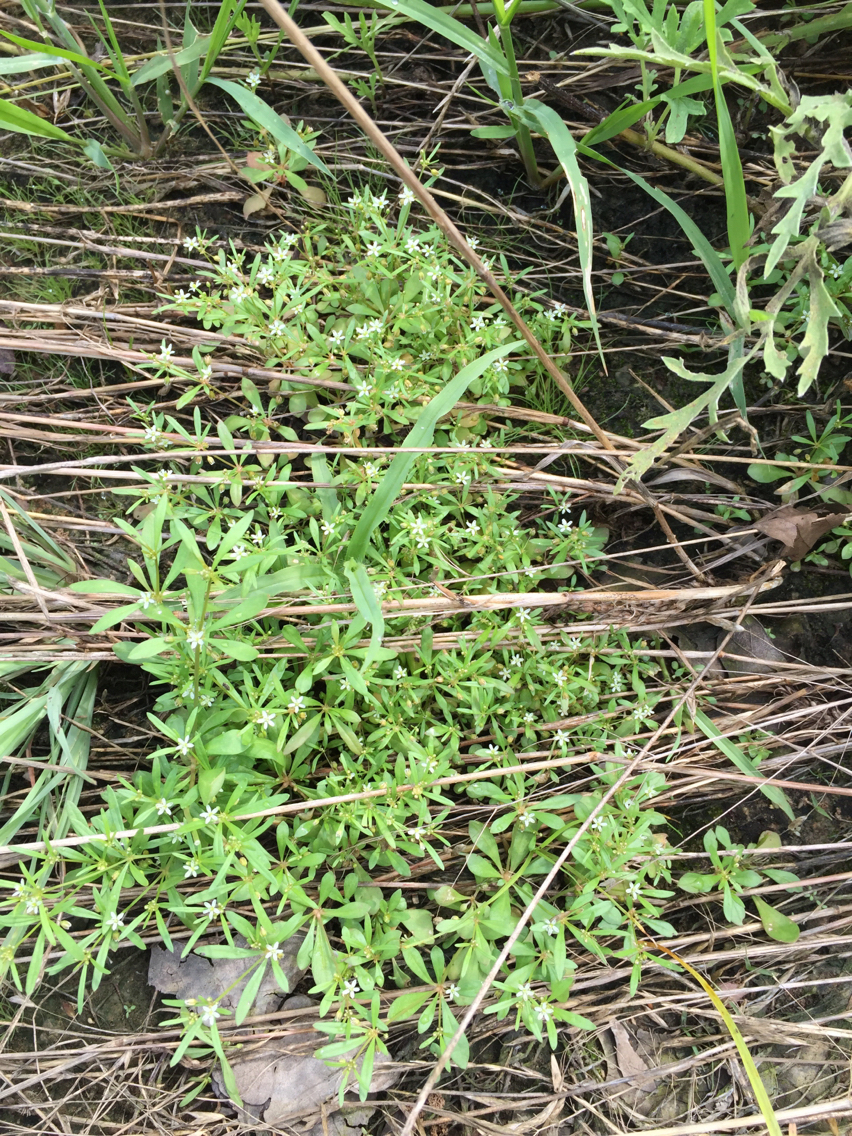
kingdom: Plantae
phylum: Tracheophyta
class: Magnoliopsida
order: Caryophyllales
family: Molluginaceae
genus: Mollugo
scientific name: Mollugo verticillata
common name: Green carpetweed
